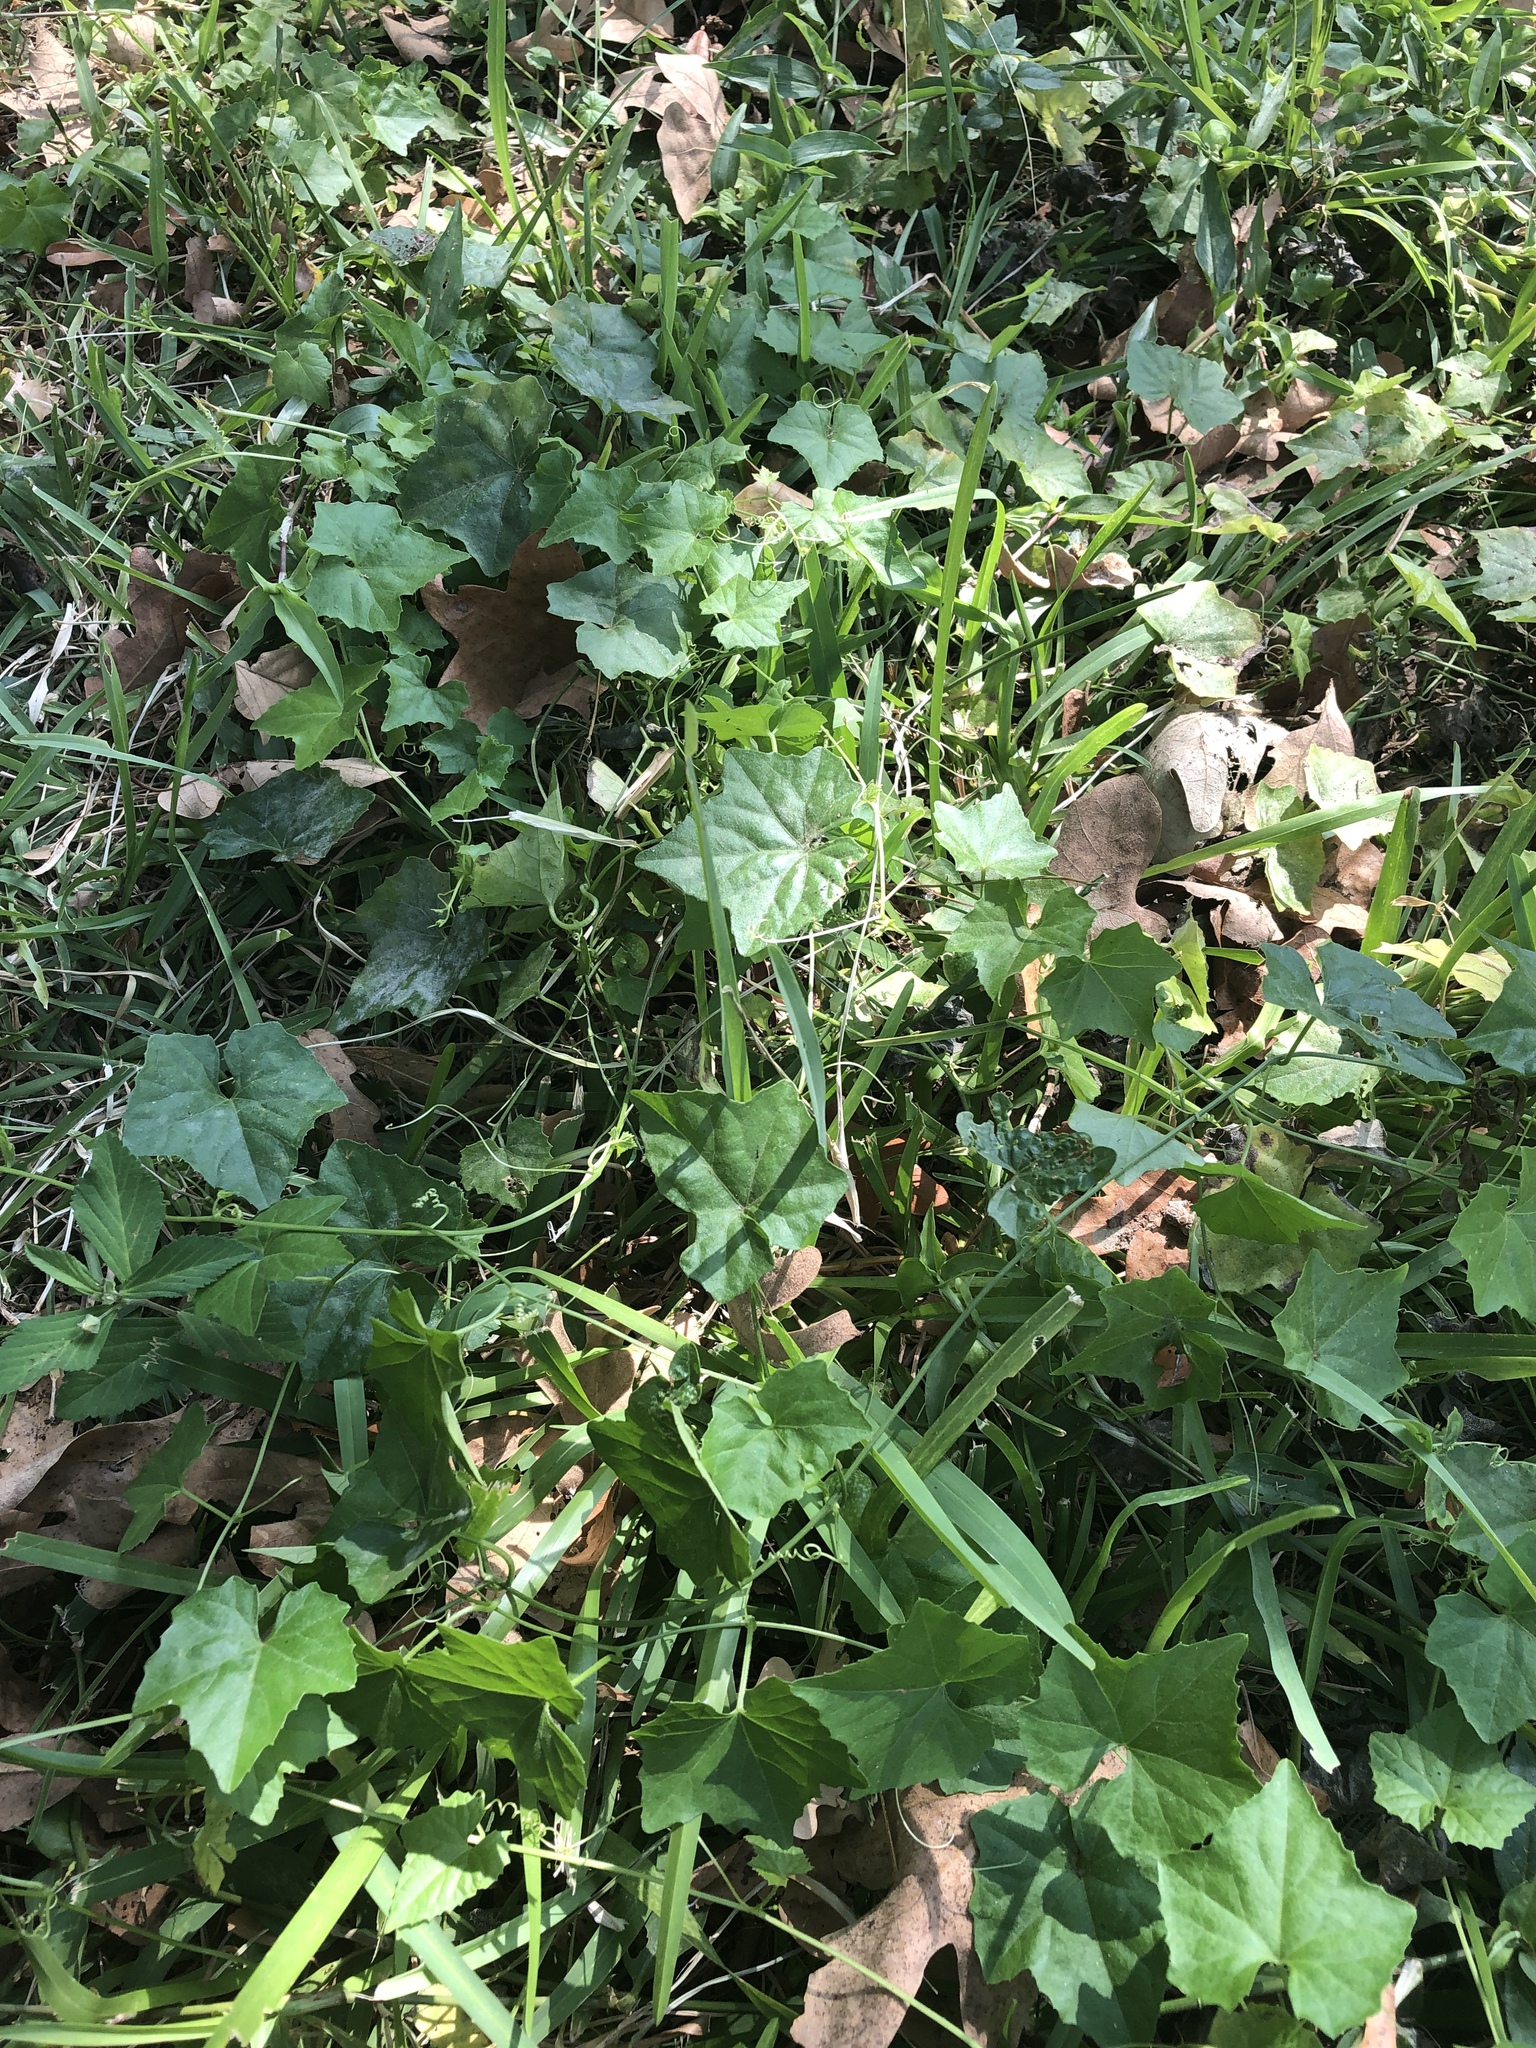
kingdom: Plantae
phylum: Tracheophyta
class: Magnoliopsida
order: Cucurbitales
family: Cucurbitaceae
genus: Melothria
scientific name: Melothria pendula
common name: Creeping-cucumber
